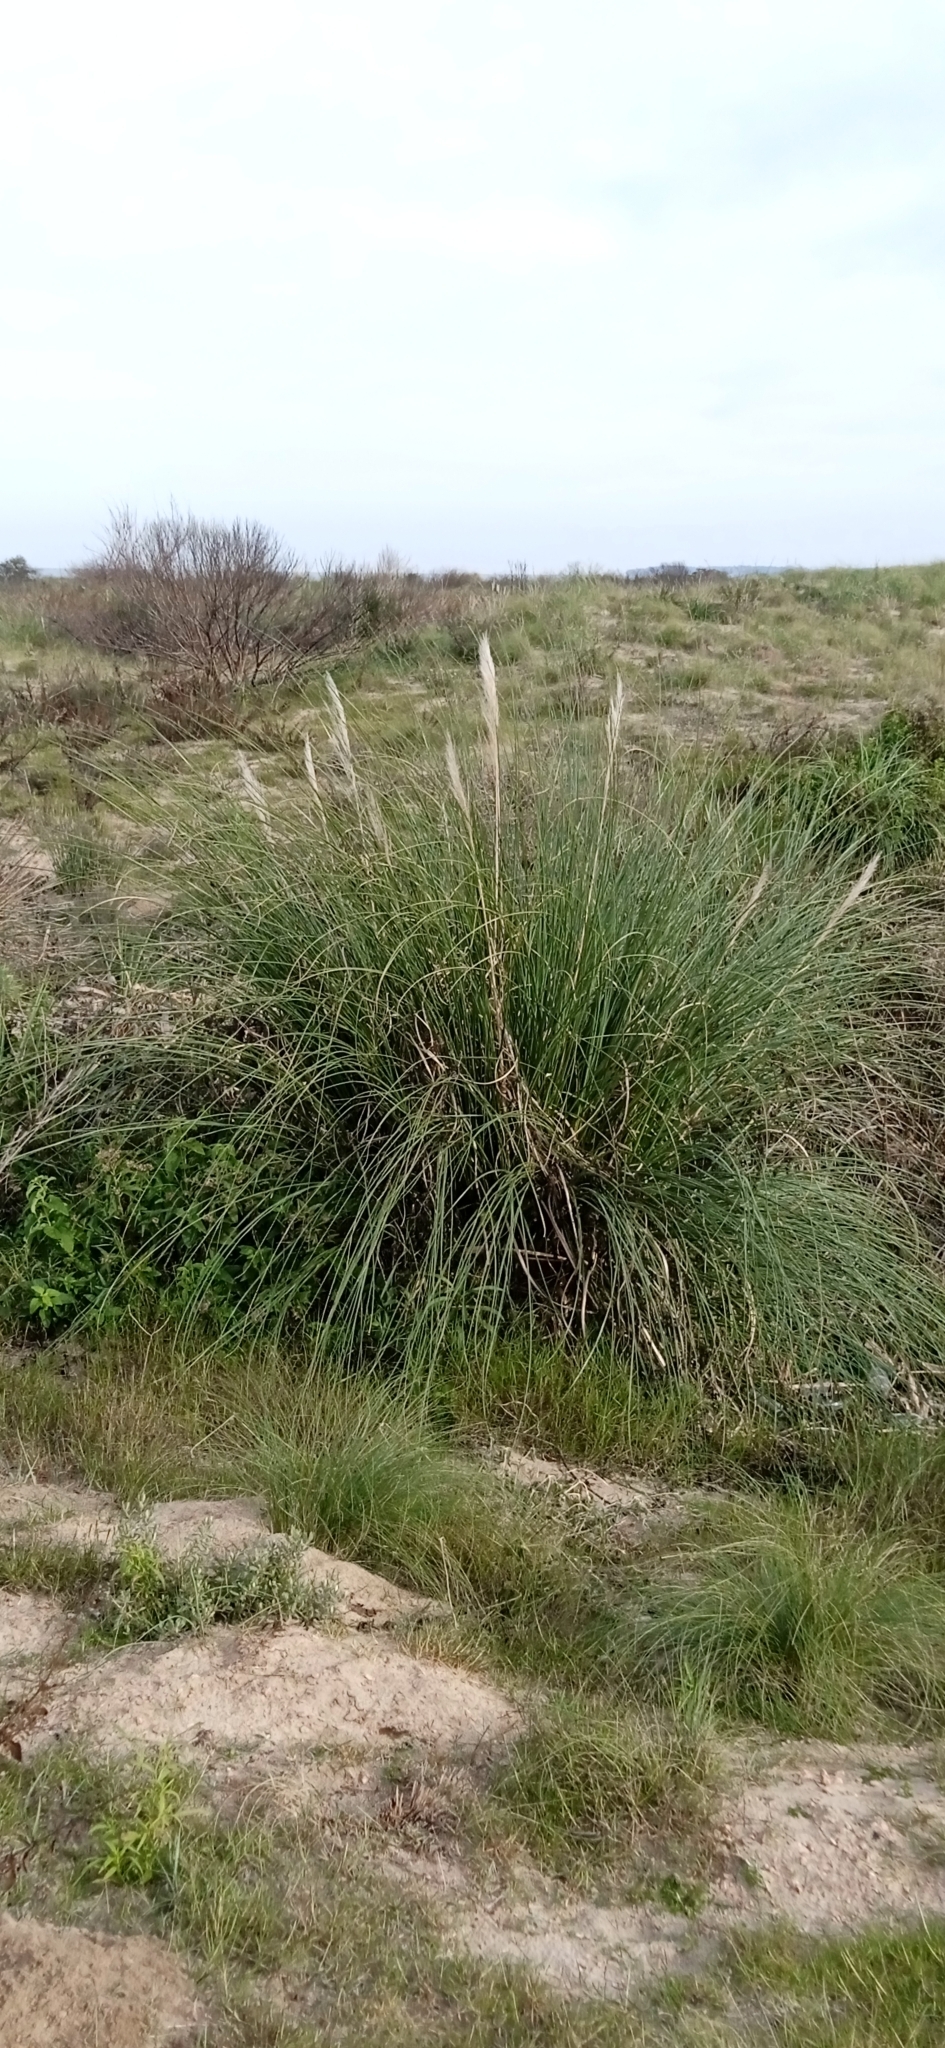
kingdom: Plantae
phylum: Tracheophyta
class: Liliopsida
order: Poales
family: Poaceae
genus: Cortaderia
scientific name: Cortaderia selloana
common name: Uruguayan pampas grass
